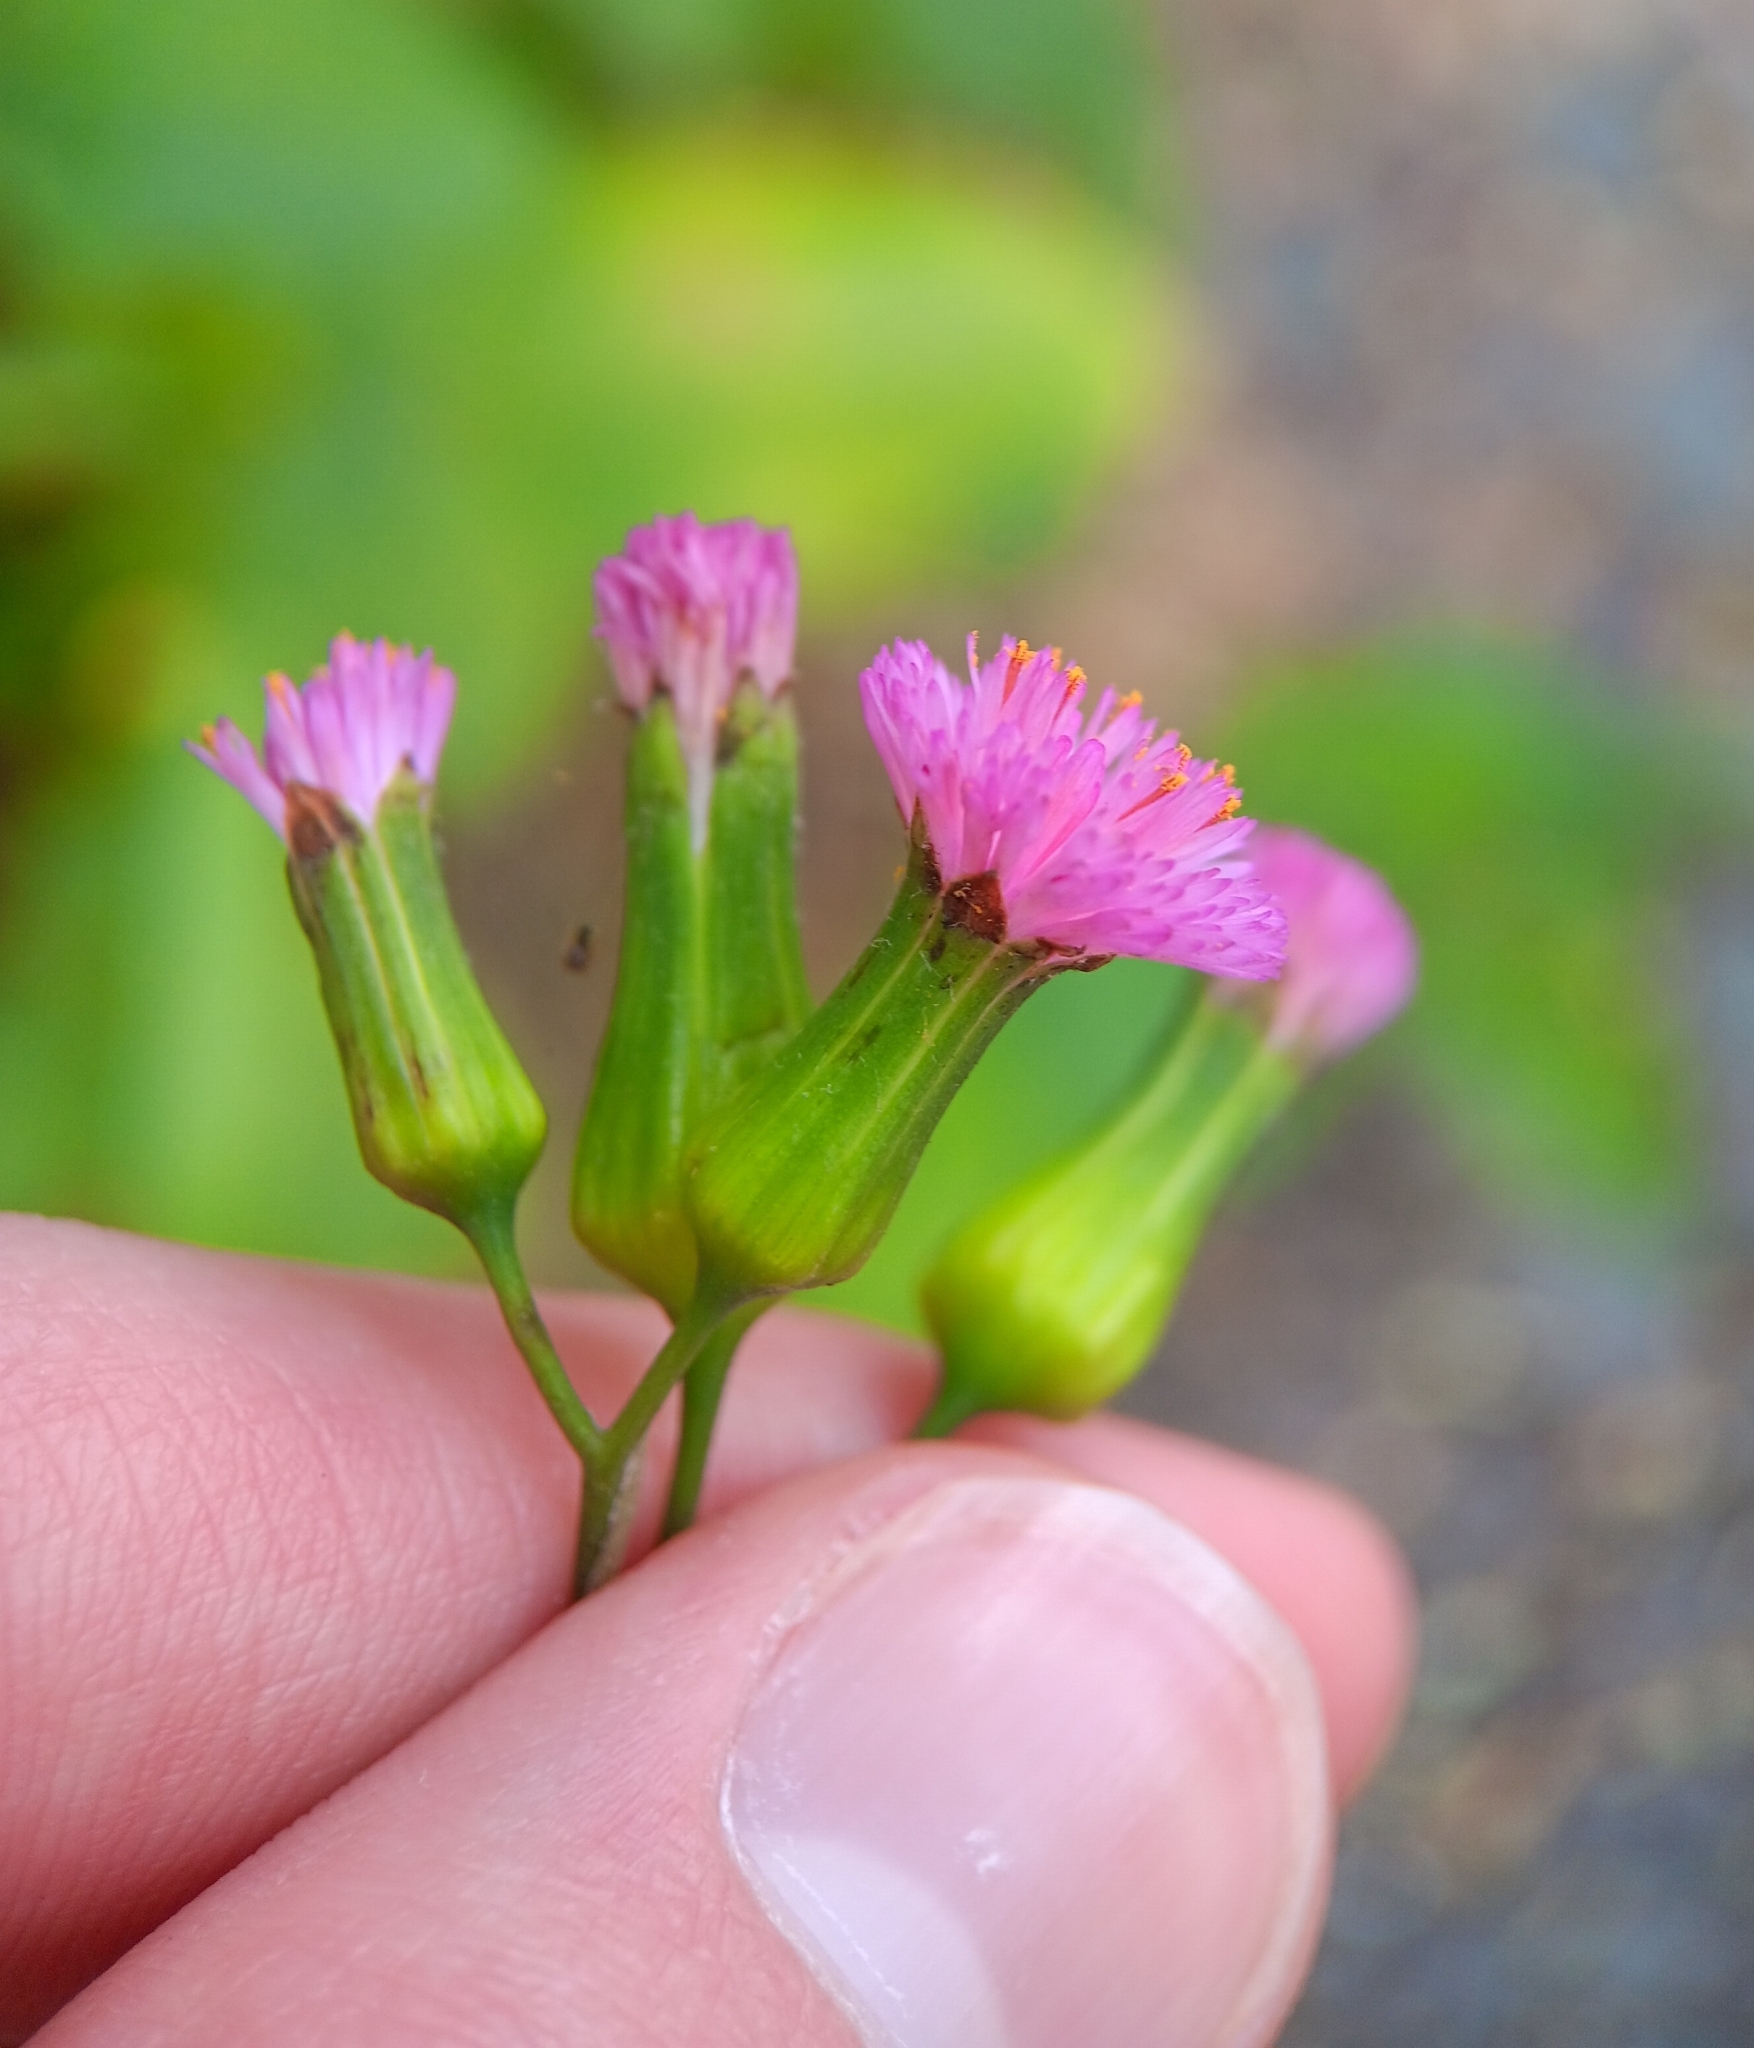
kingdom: Plantae
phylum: Tracheophyta
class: Magnoliopsida
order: Asterales
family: Asteraceae
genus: Emilia
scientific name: Emilia sonchifolia
